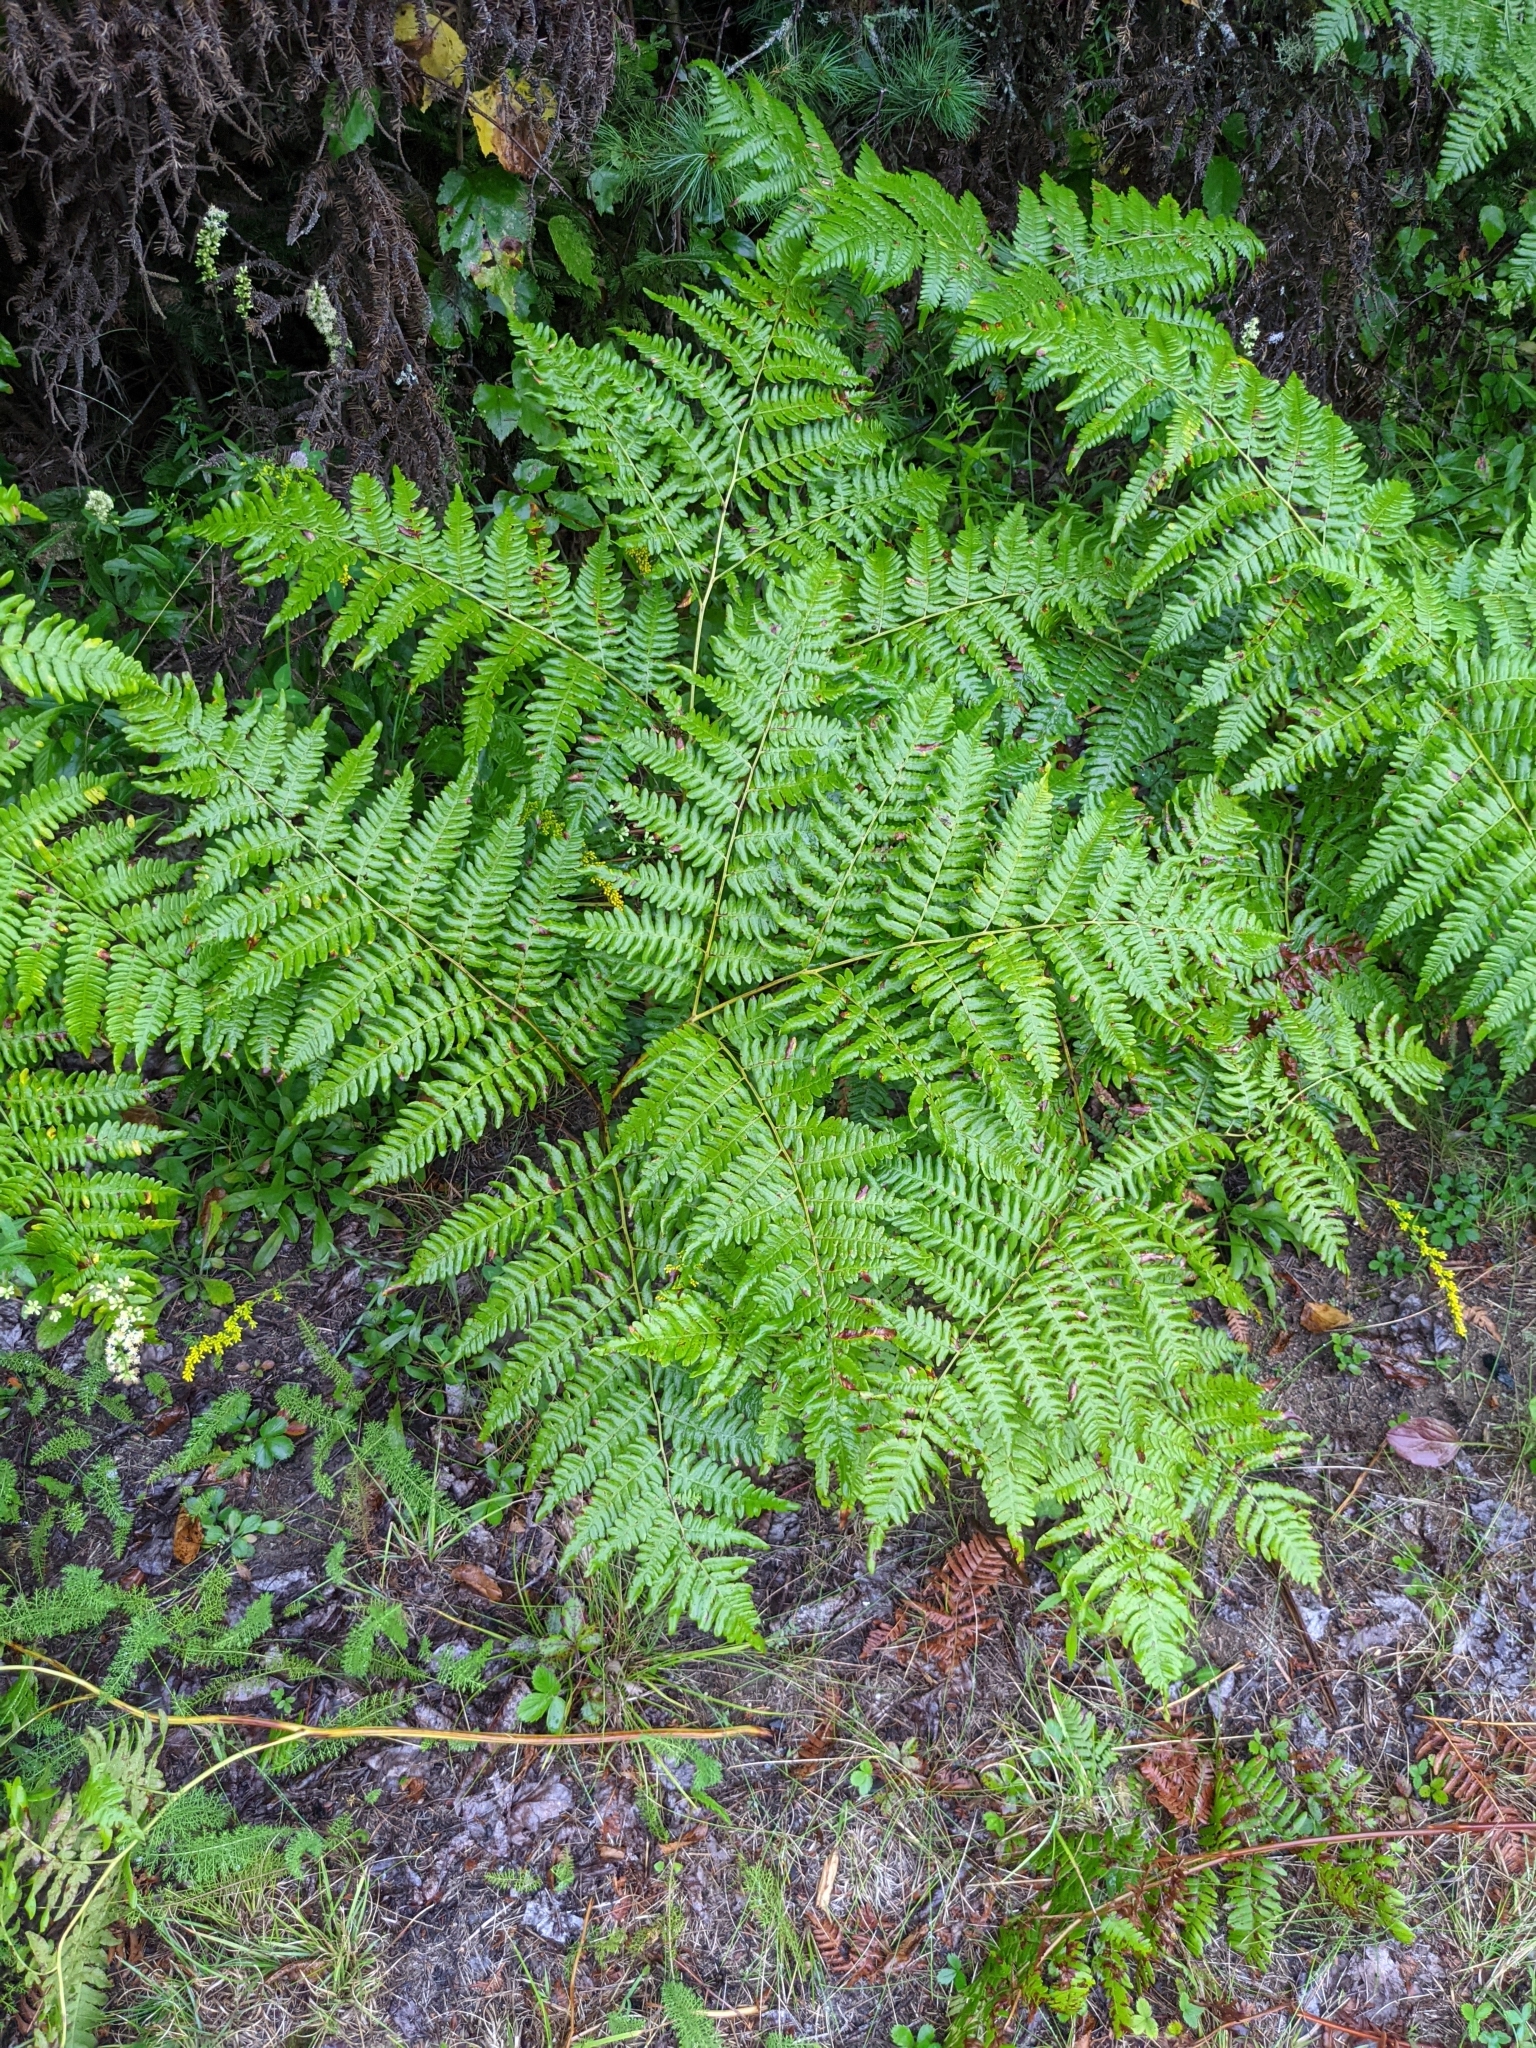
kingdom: Plantae
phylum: Tracheophyta
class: Polypodiopsida
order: Polypodiales
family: Dennstaedtiaceae
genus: Pteridium
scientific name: Pteridium aquilinum
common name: Bracken
